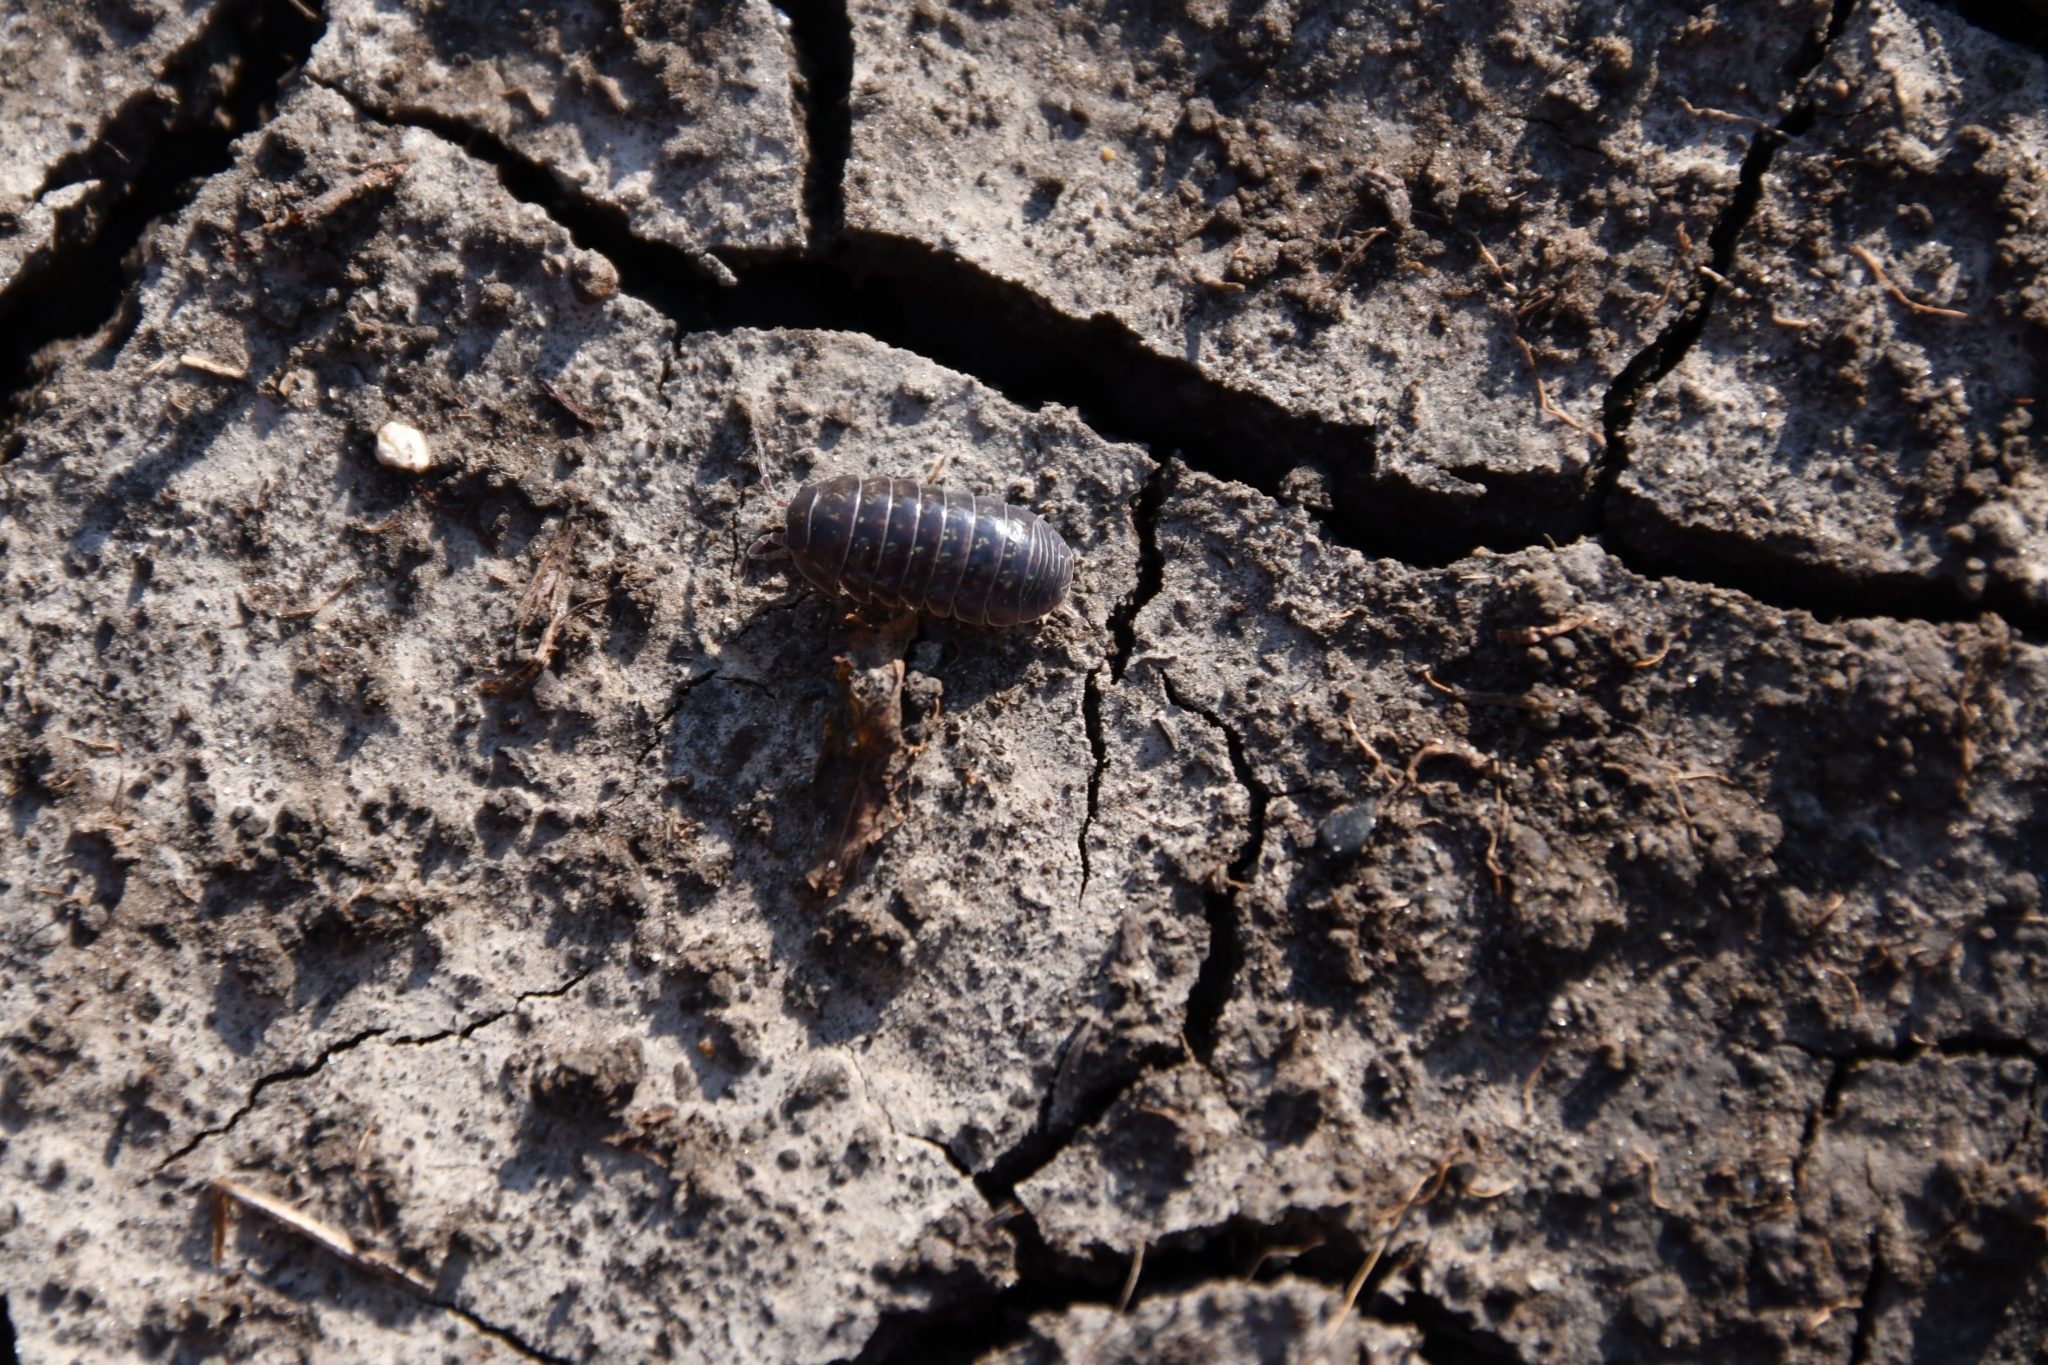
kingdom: Animalia
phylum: Arthropoda
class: Malacostraca
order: Isopoda
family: Armadillidiidae
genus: Armadillidium
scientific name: Armadillidium vulgare
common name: Common pill woodlouse
